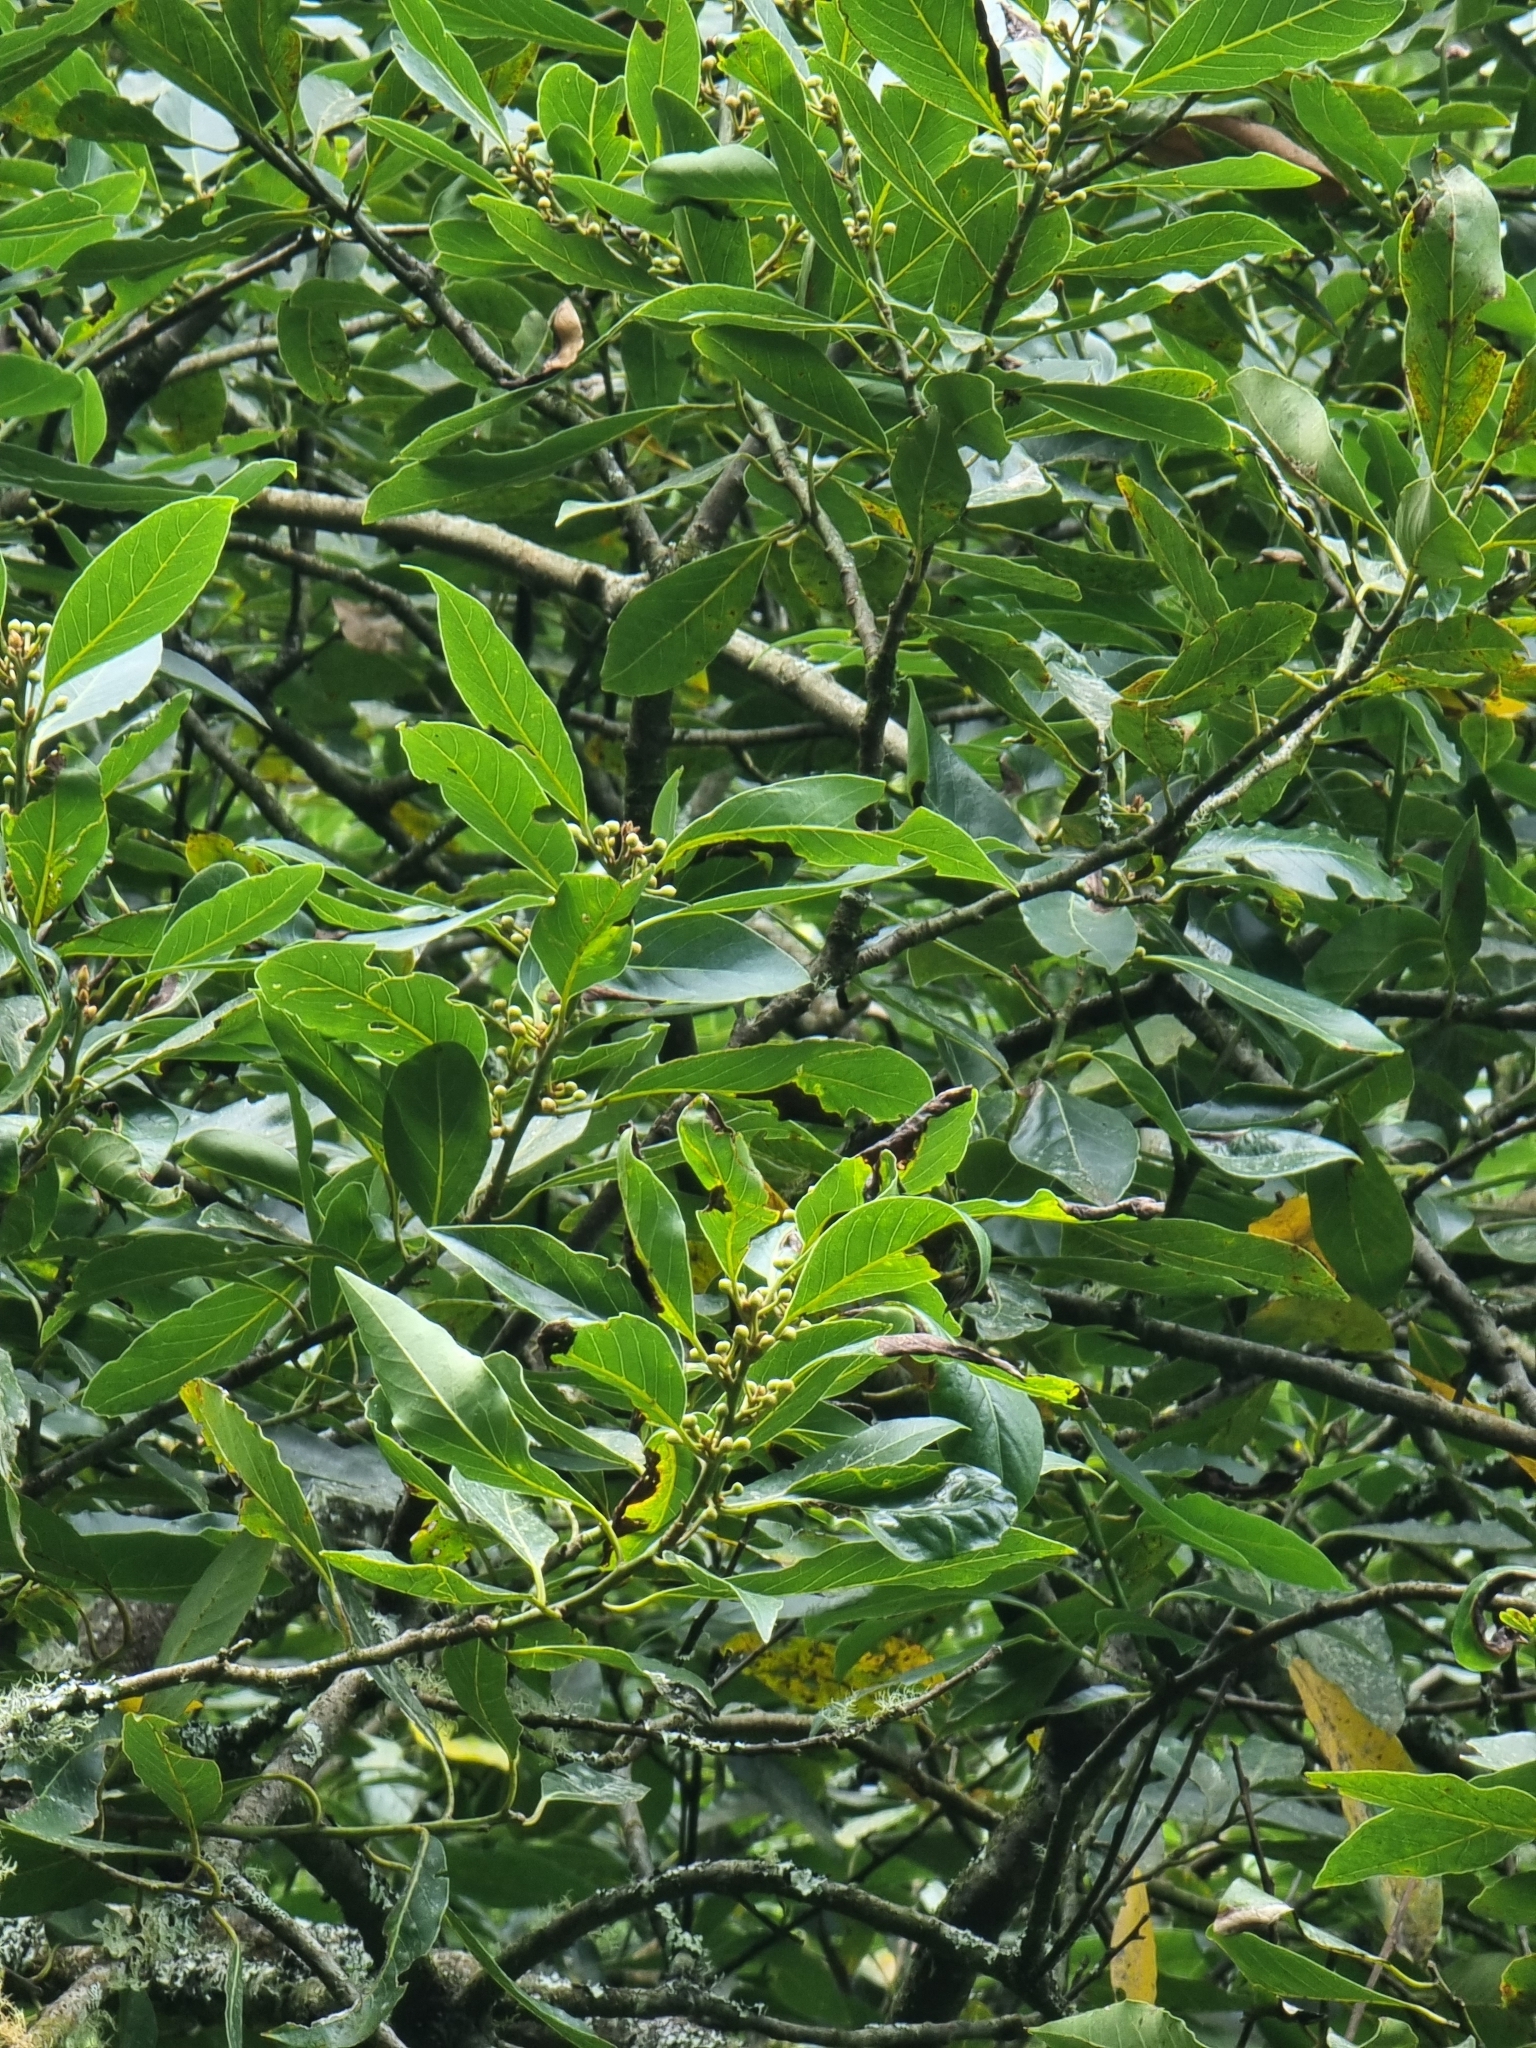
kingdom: Plantae
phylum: Tracheophyta
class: Magnoliopsida
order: Laurales
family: Lauraceae
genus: Laurus
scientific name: Laurus novocanariensis
